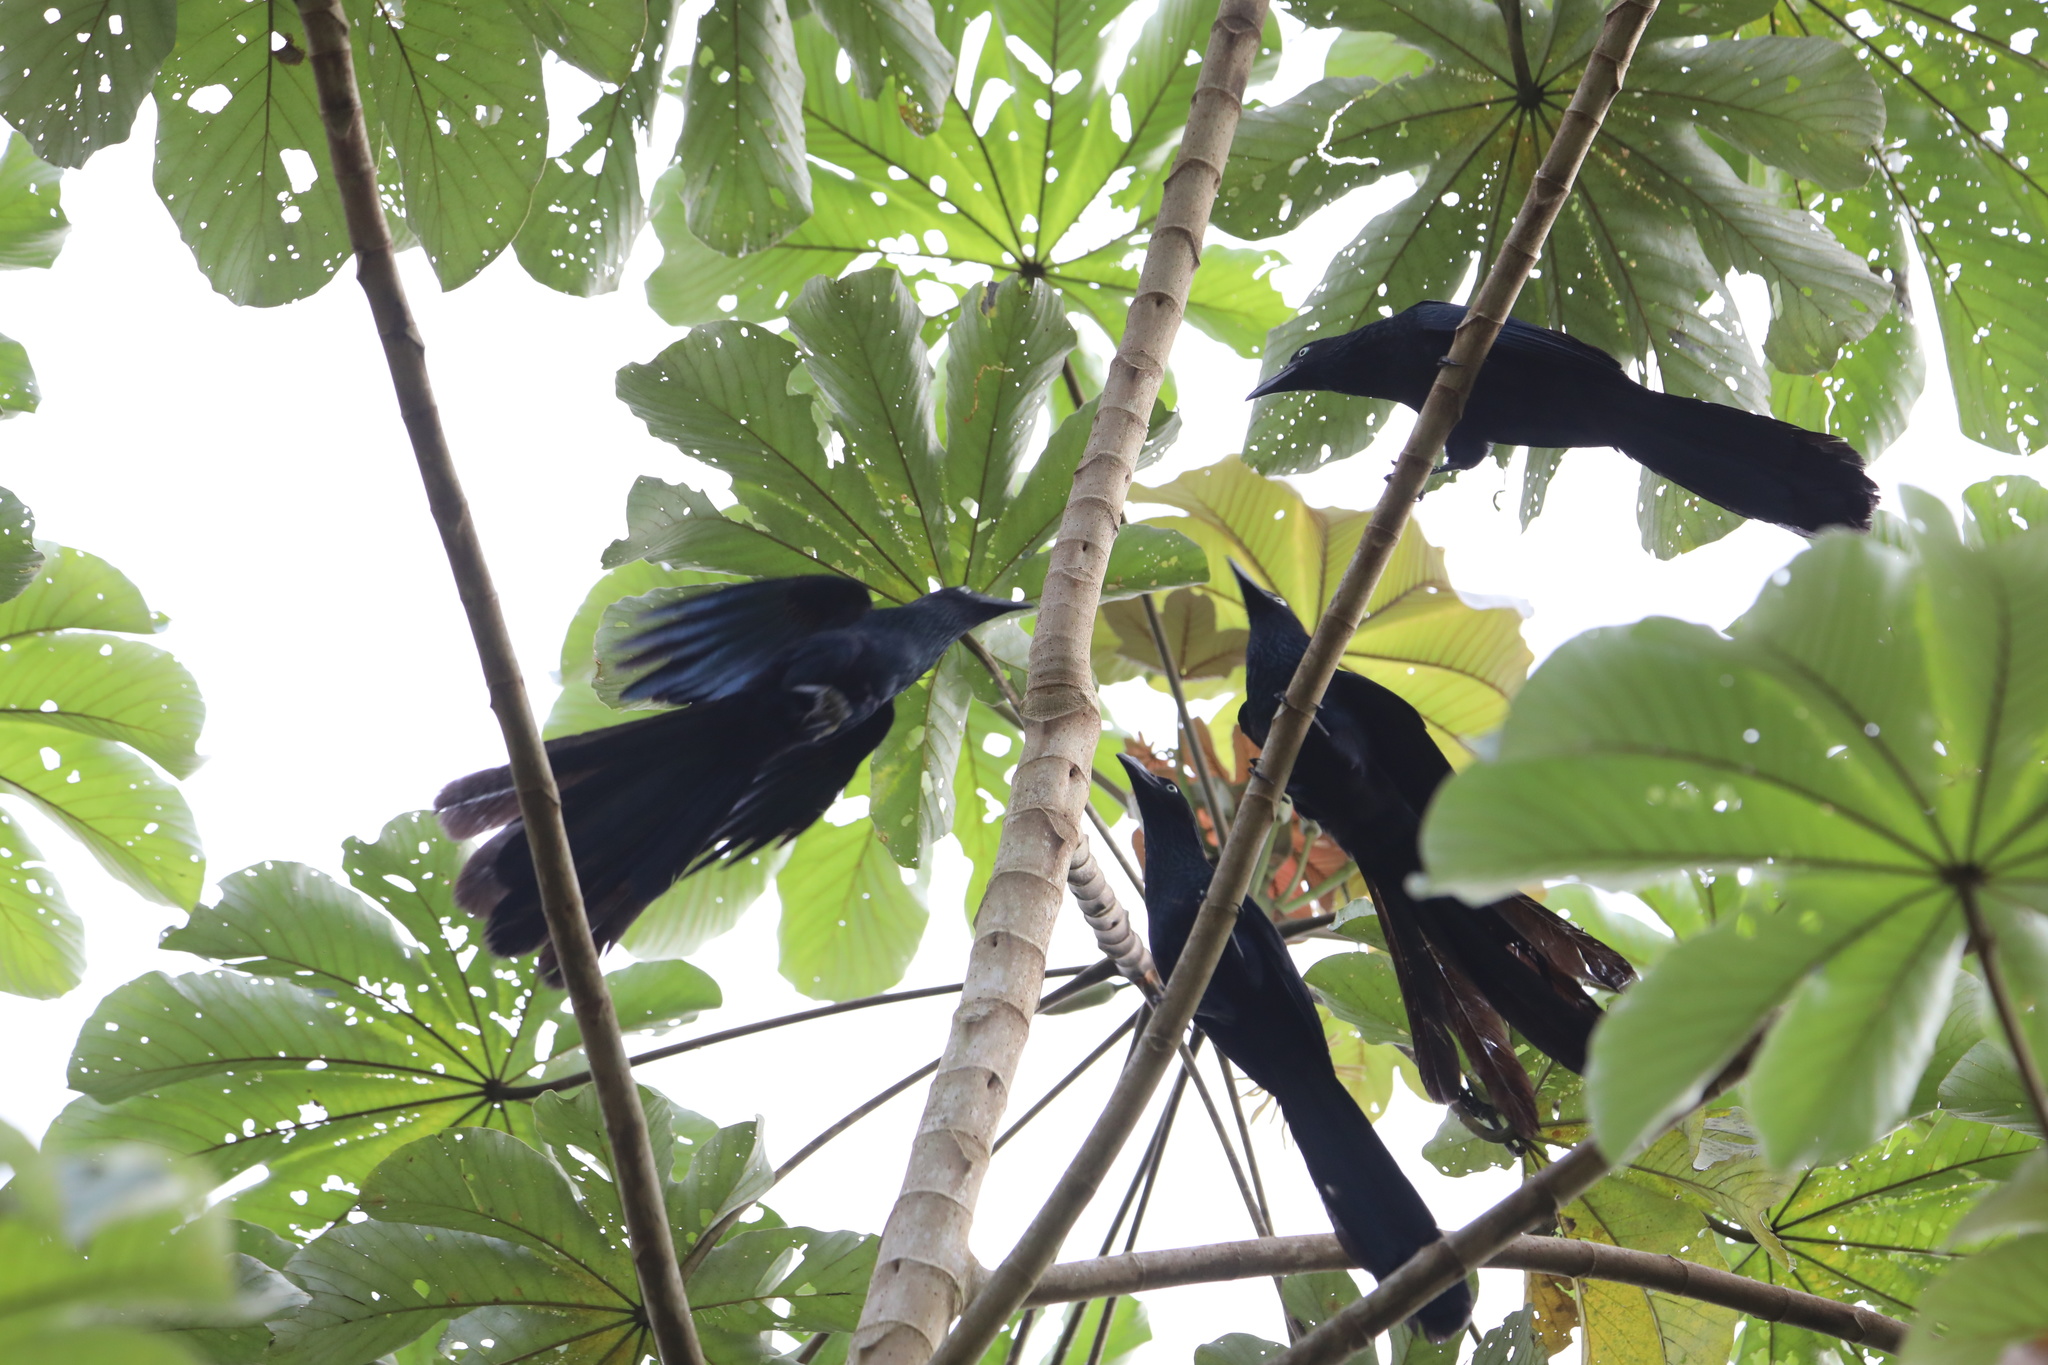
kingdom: Animalia
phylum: Chordata
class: Aves
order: Cuculiformes
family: Cuculidae
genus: Crotophaga
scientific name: Crotophaga major
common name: Greater ani
